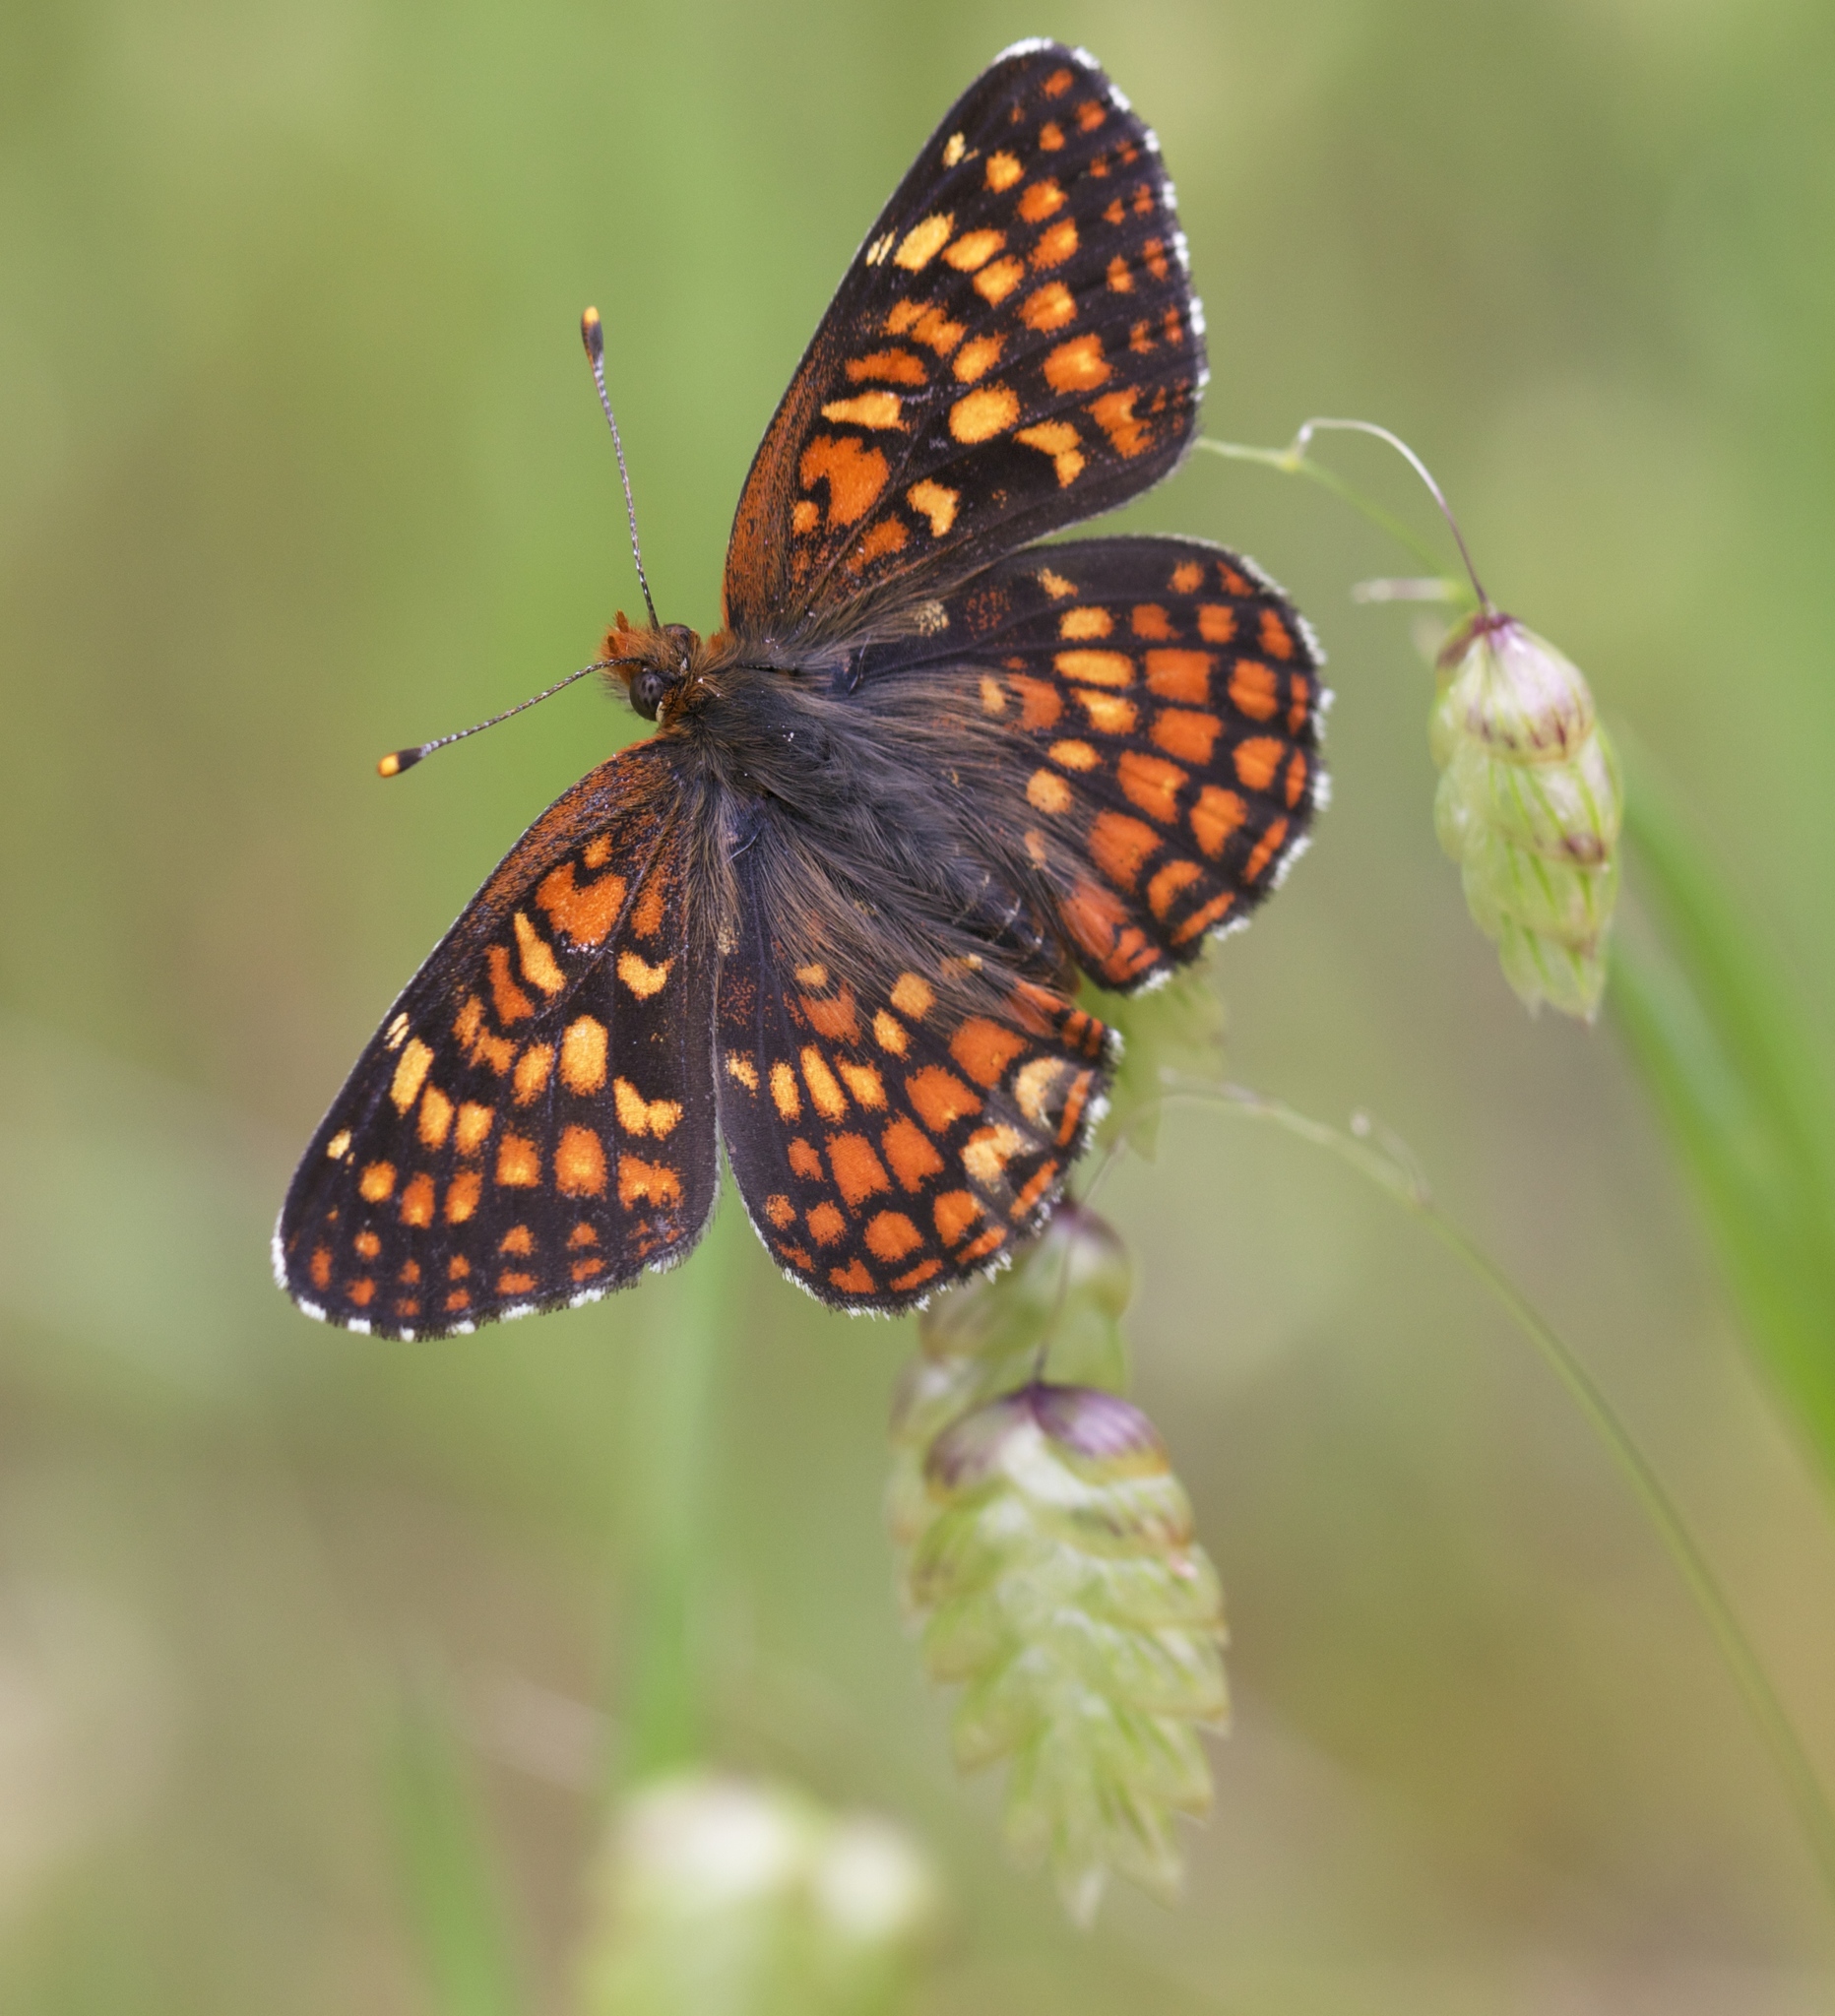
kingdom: Animalia
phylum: Arthropoda
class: Insecta
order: Lepidoptera
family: Nymphalidae
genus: Chlosyne
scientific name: Chlosyne palla
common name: Northern checkerspot
